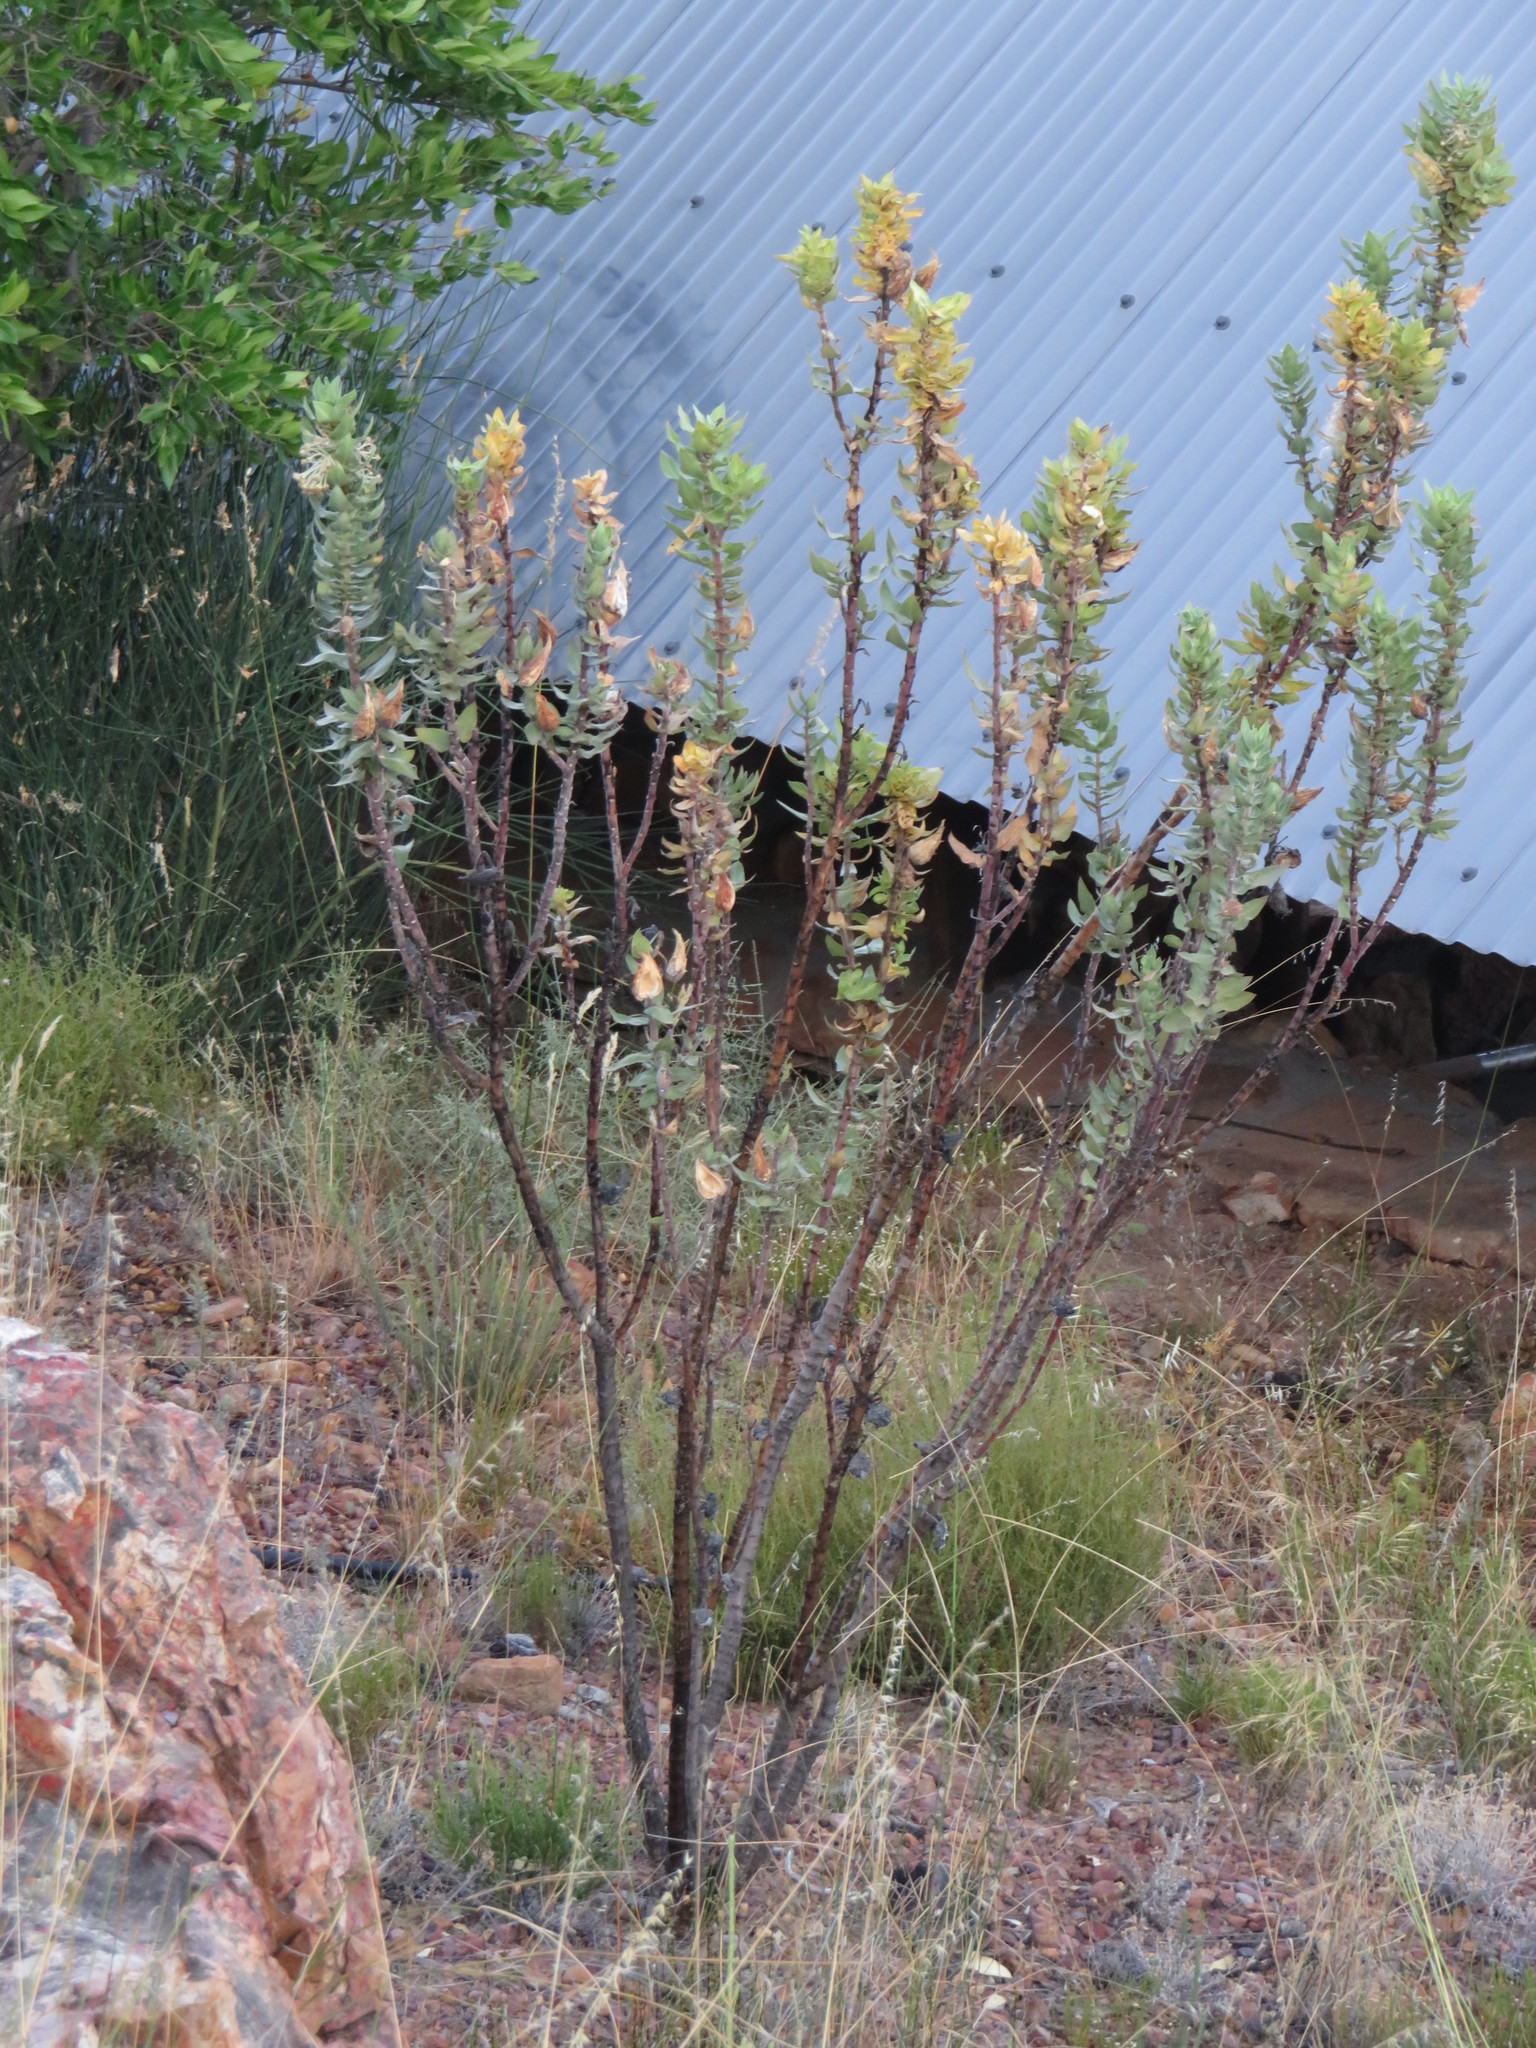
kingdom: Plantae
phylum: Tracheophyta
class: Magnoliopsida
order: Gentianales
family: Apocynaceae
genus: Gomphocarpus
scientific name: Gomphocarpus cancellatus
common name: Wild cotton
